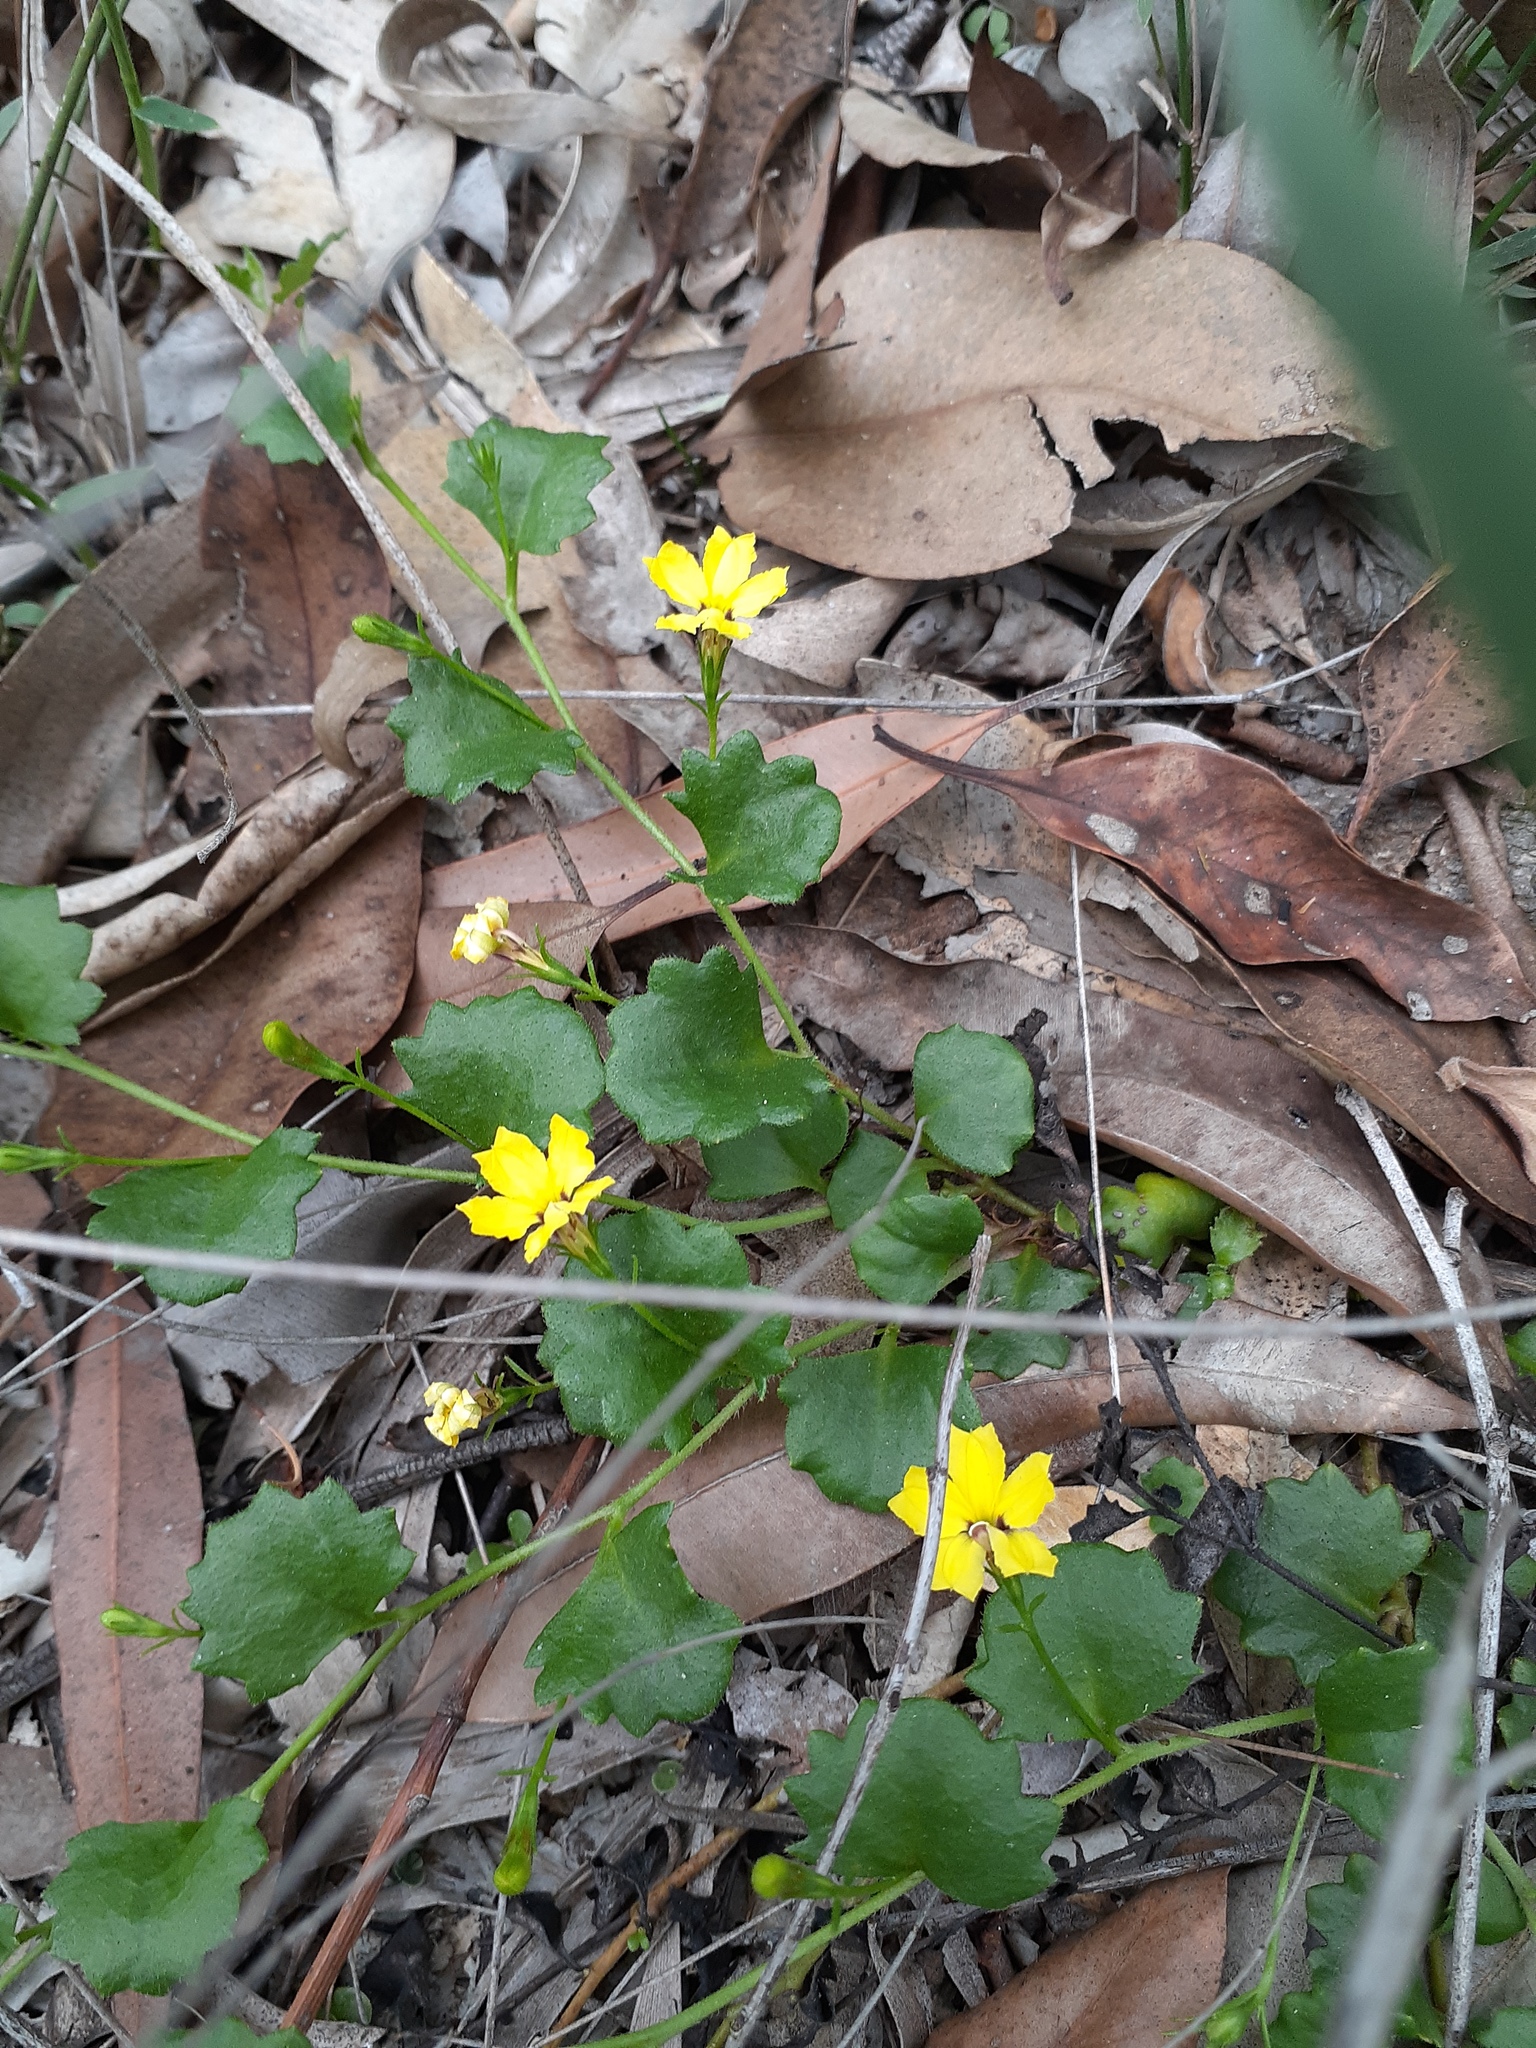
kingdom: Plantae
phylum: Tracheophyta
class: Magnoliopsida
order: Asterales
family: Goodeniaceae
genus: Goodenia
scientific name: Goodenia rotundifolia
